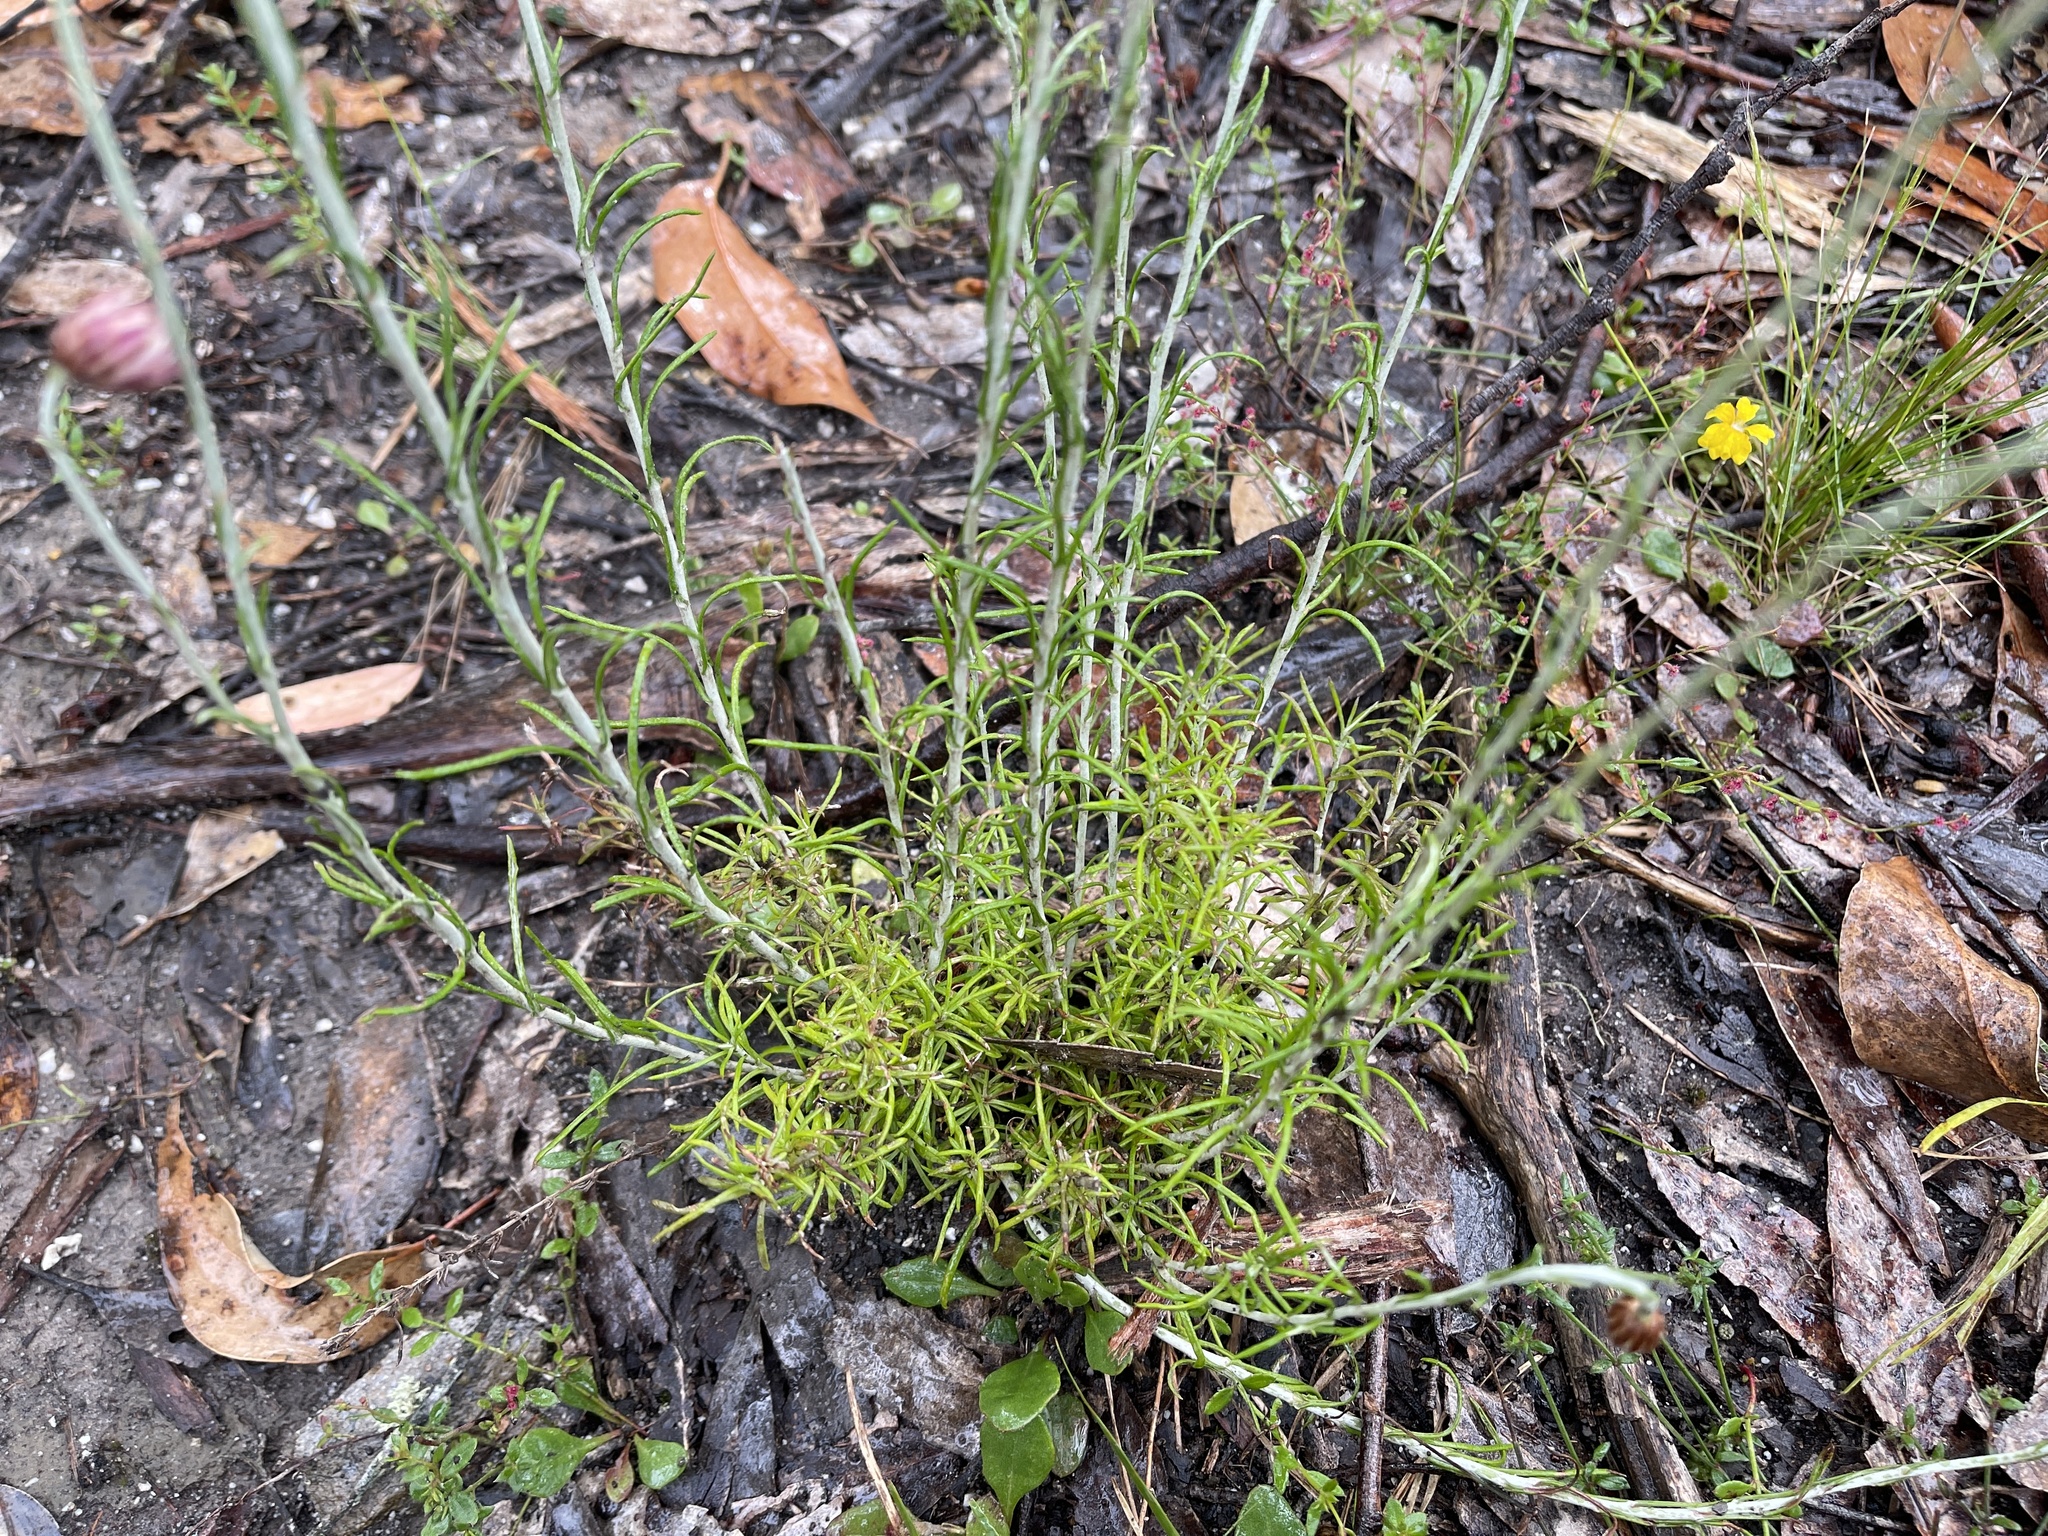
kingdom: Plantae
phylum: Tracheophyta
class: Magnoliopsida
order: Asterales
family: Asteraceae
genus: Chrysocephalum
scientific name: Chrysocephalum baxteri
